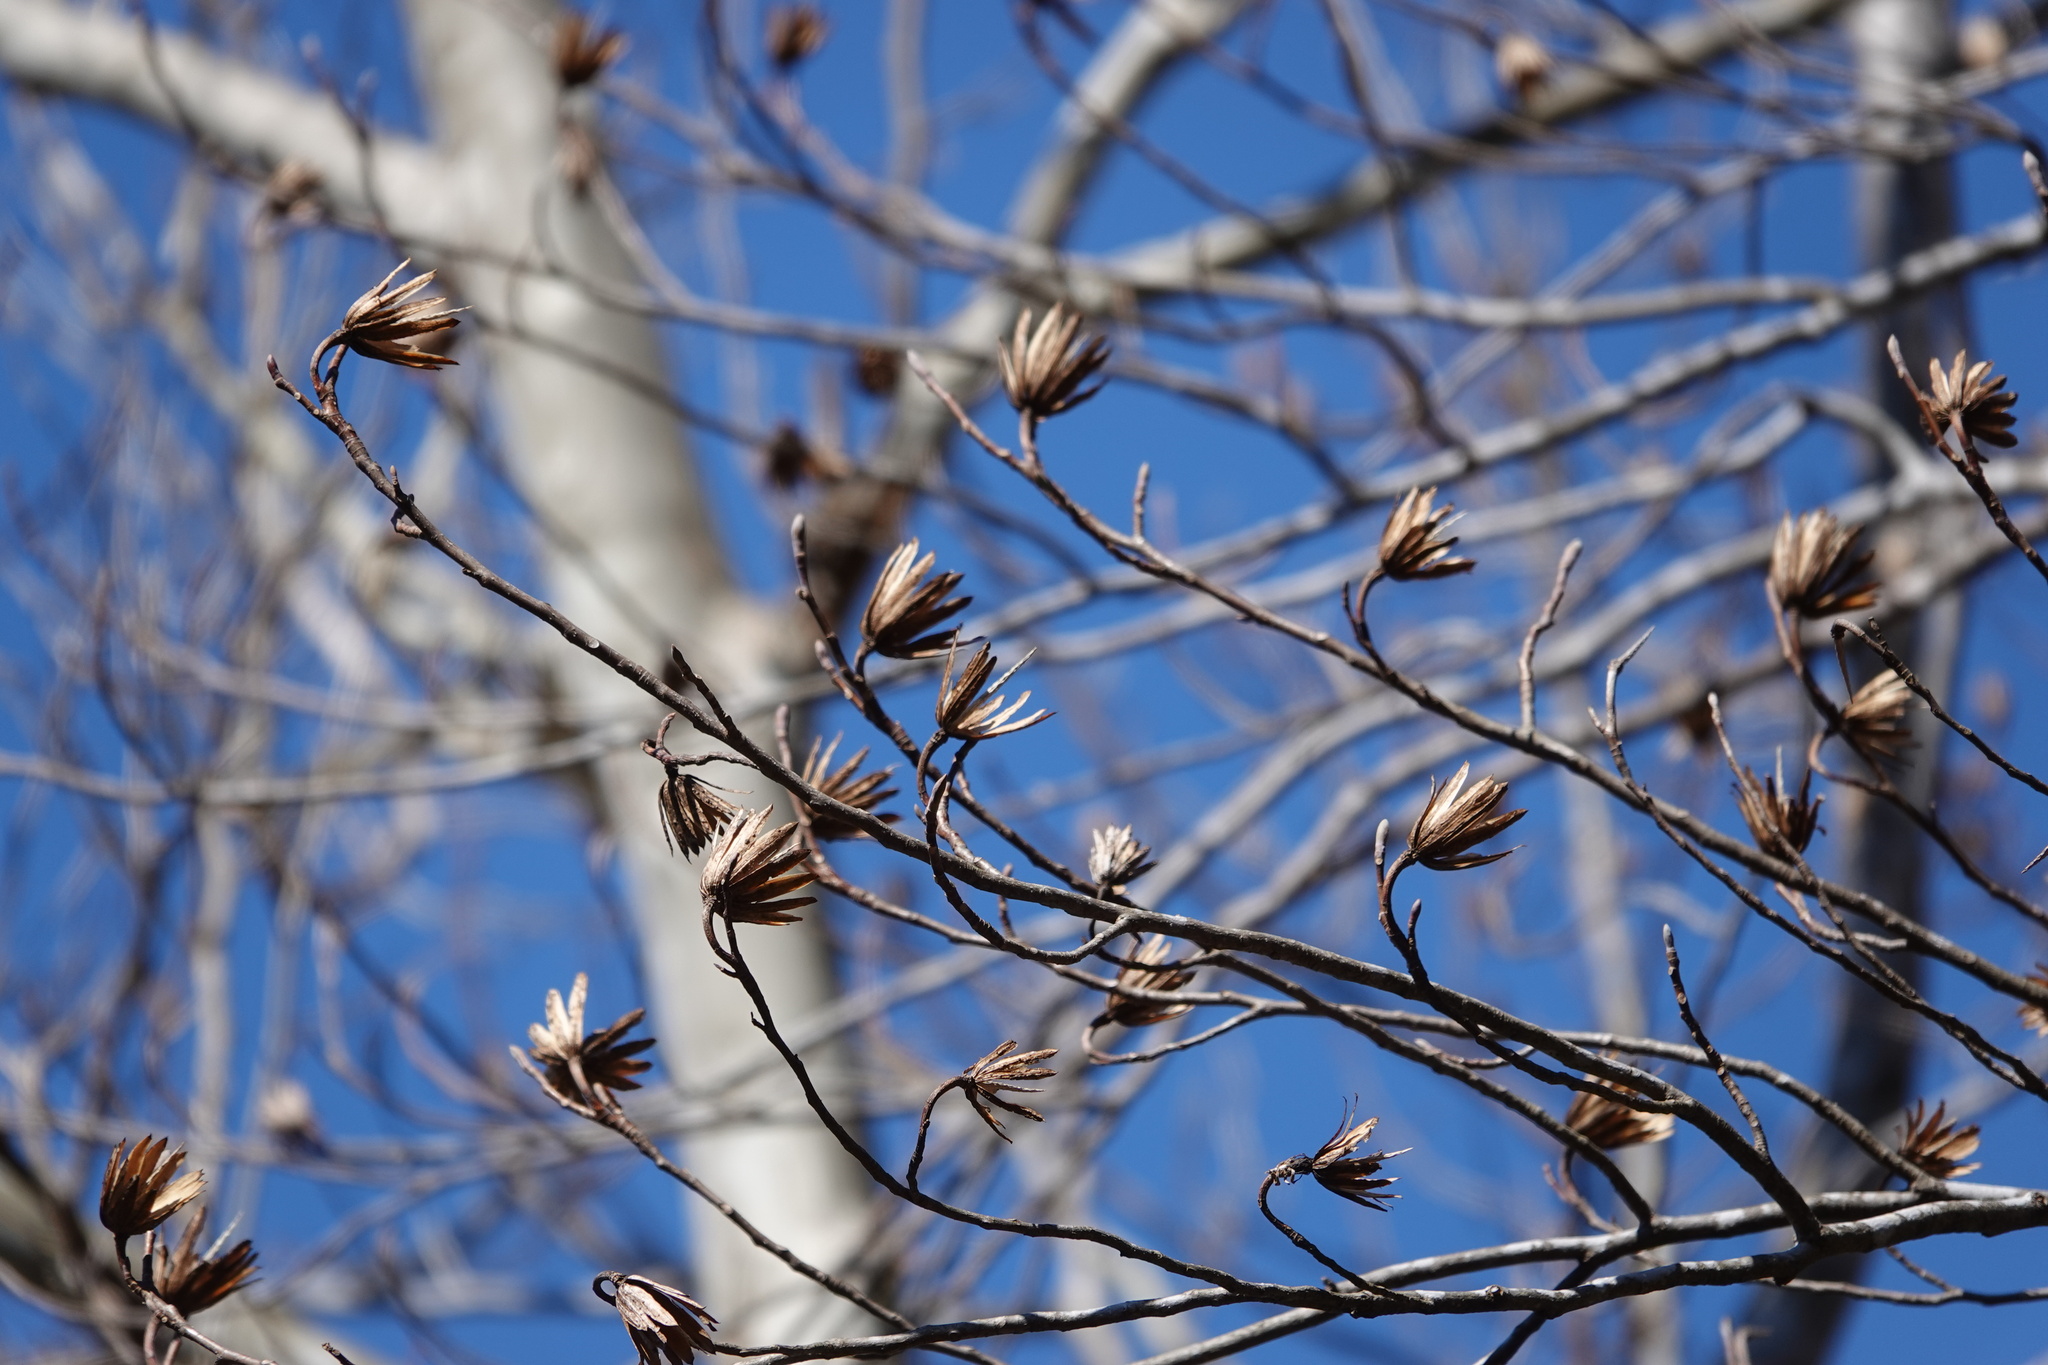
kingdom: Plantae
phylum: Tracheophyta
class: Magnoliopsida
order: Magnoliales
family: Magnoliaceae
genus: Liriodendron
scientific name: Liriodendron tulipifera
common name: Tulip tree
